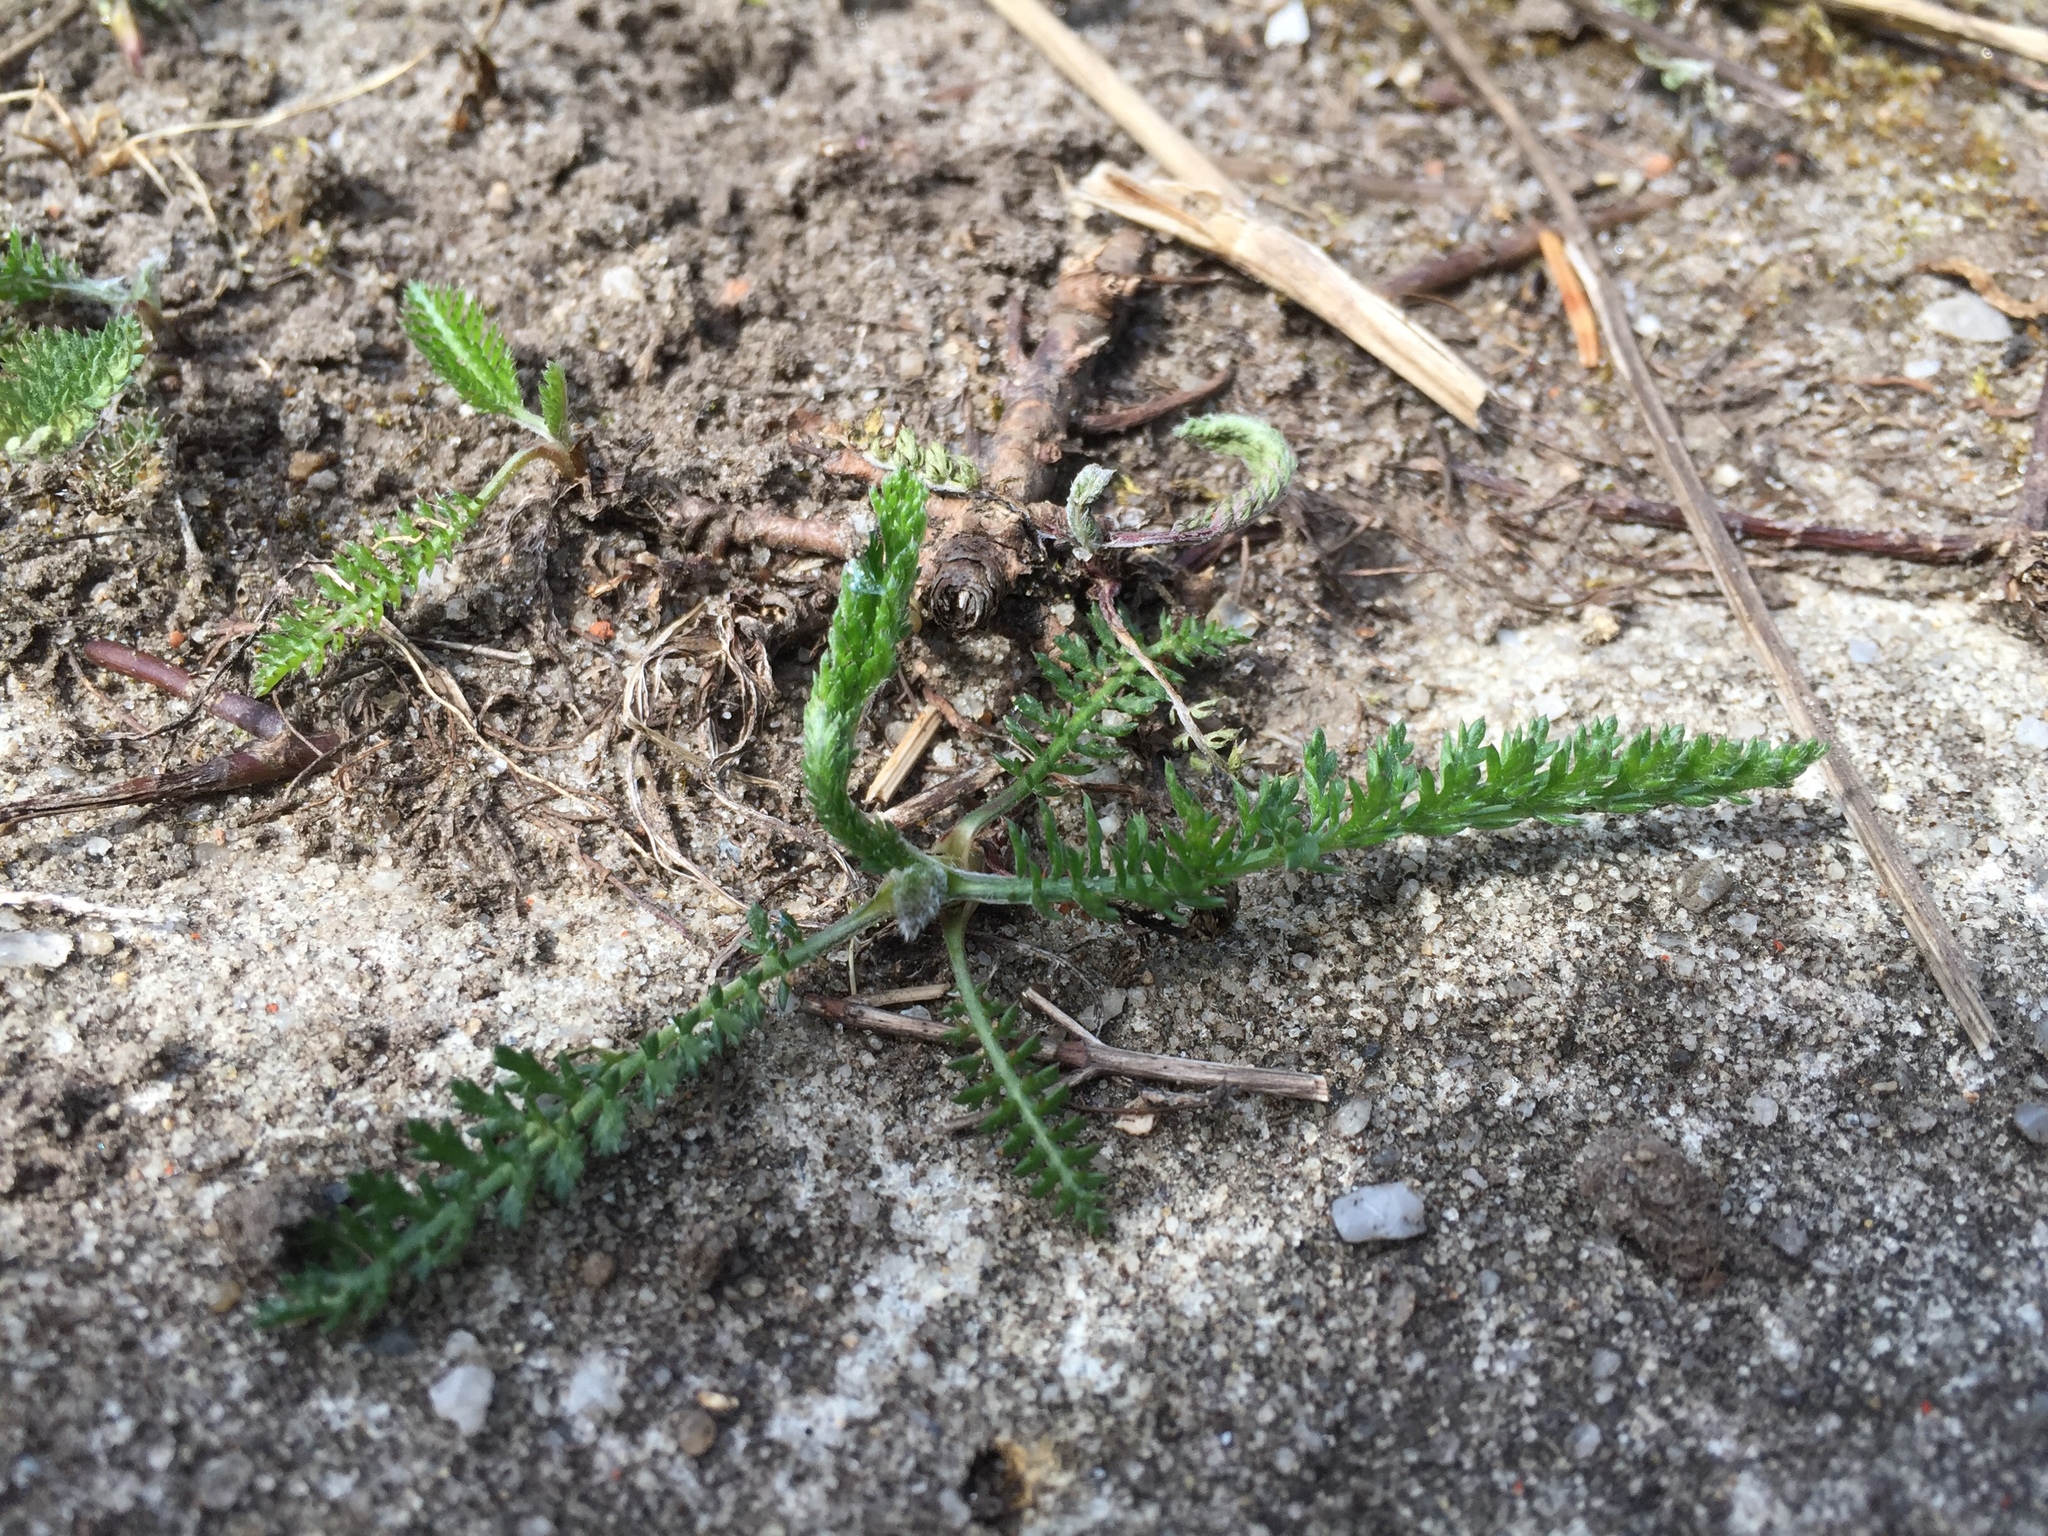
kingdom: Plantae
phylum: Tracheophyta
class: Magnoliopsida
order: Asterales
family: Asteraceae
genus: Achillea
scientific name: Achillea millefolium
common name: Yarrow
